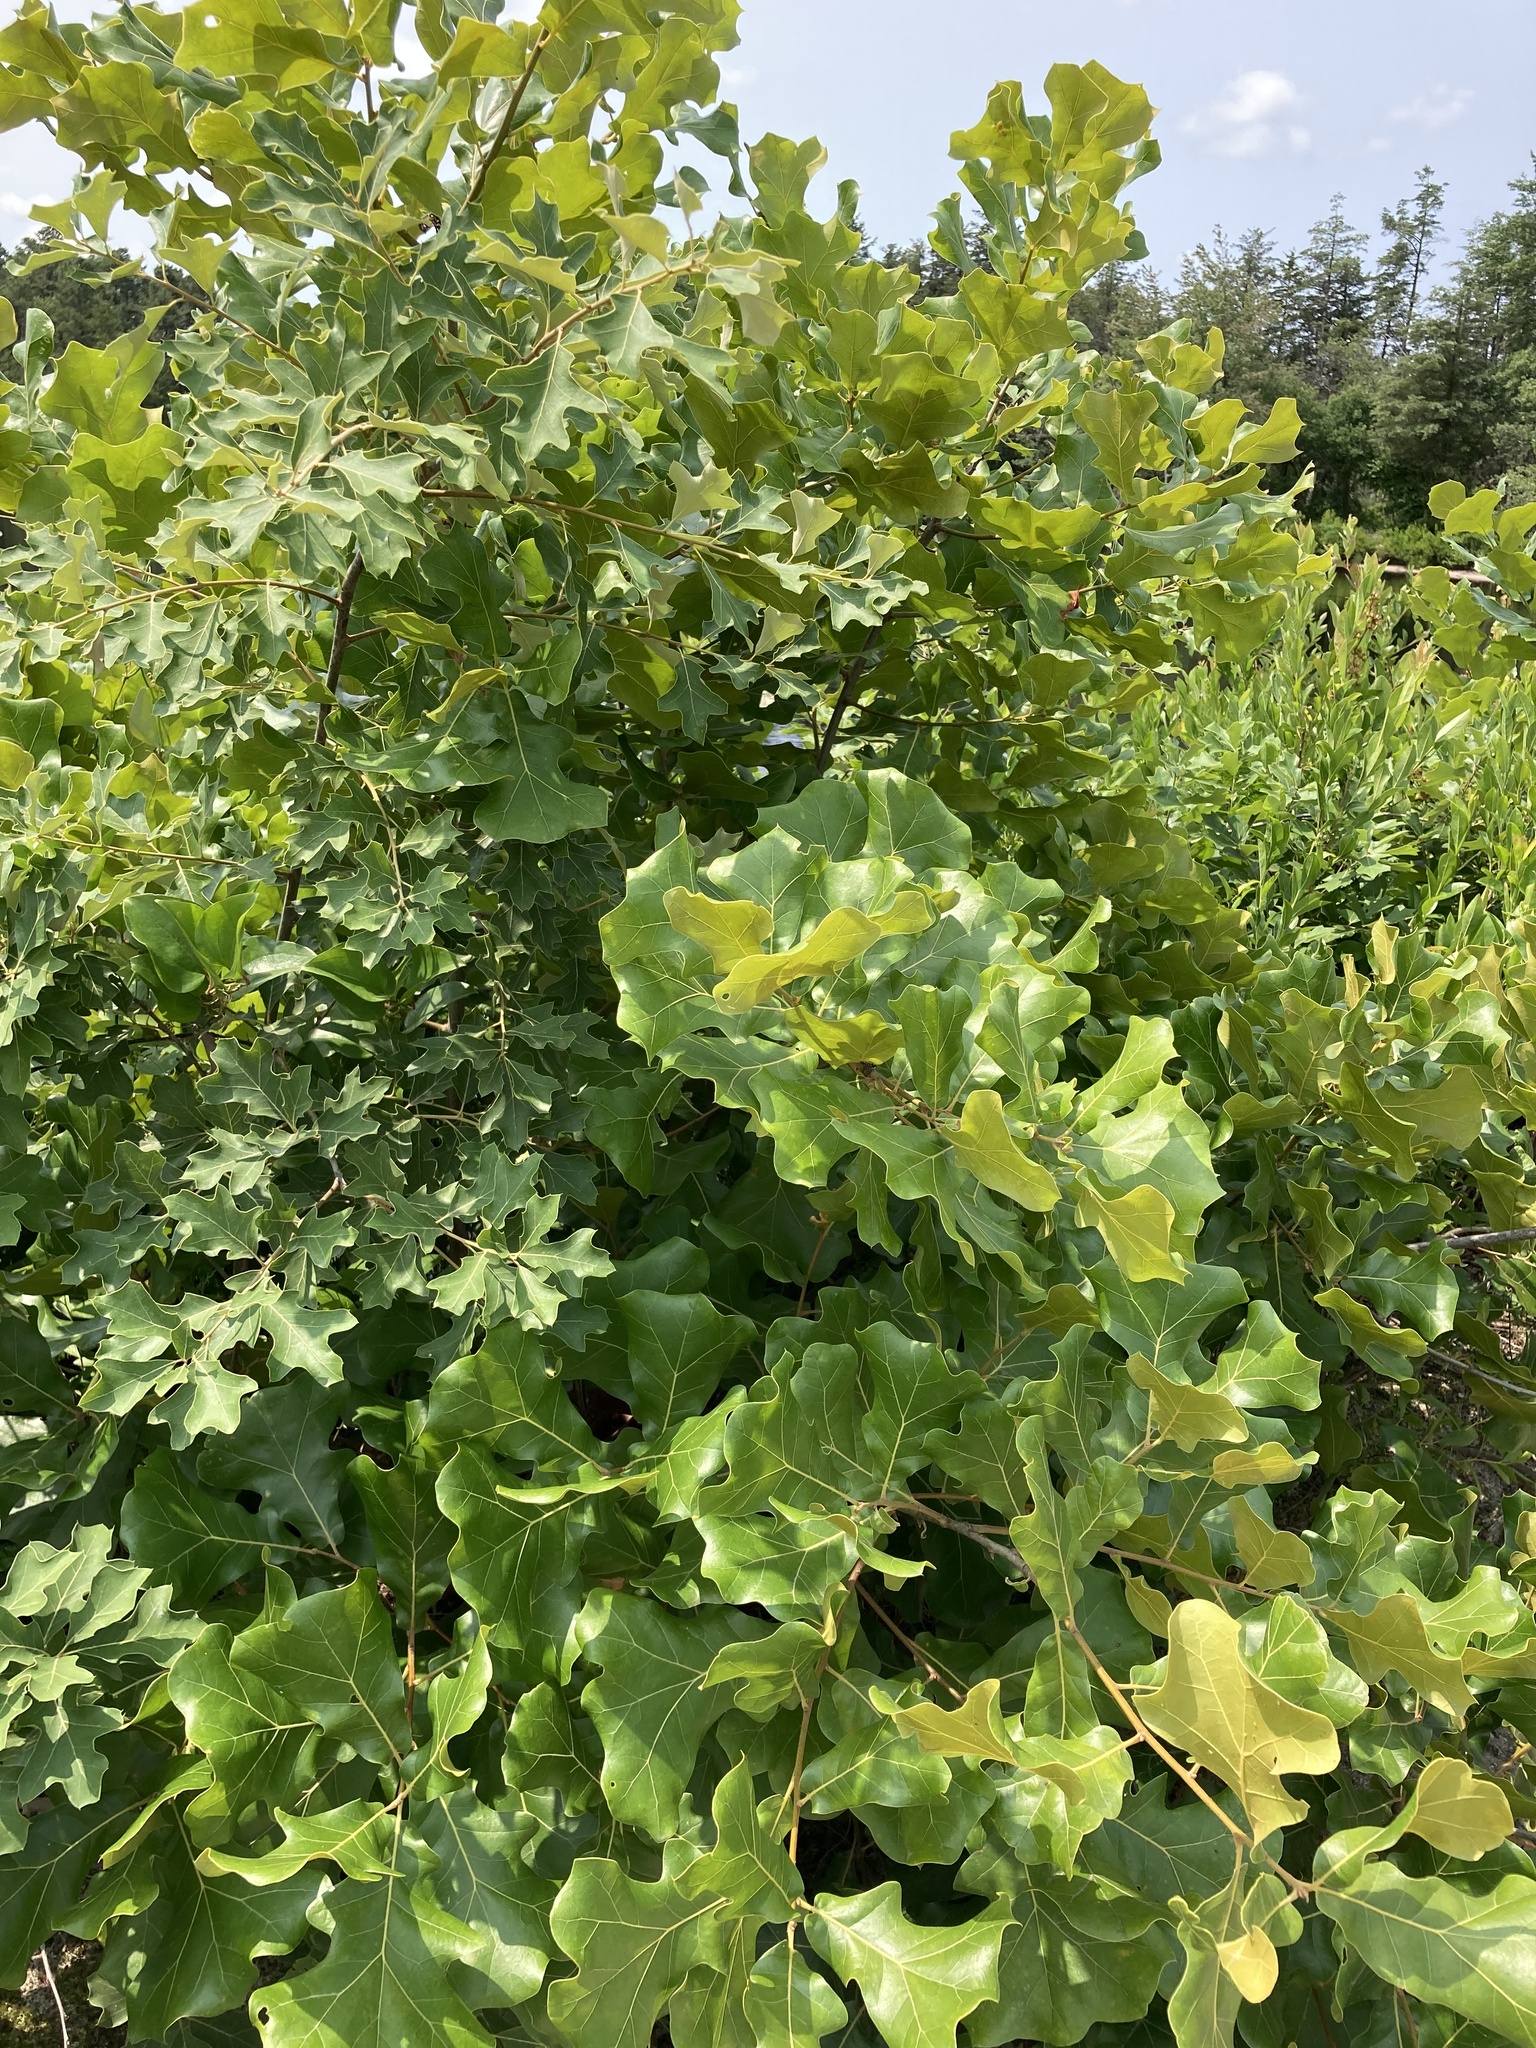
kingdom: Plantae
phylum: Tracheophyta
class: Magnoliopsida
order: Fagales
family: Fagaceae
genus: Quercus
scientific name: Quercus marilandica
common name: Blackjack oak
